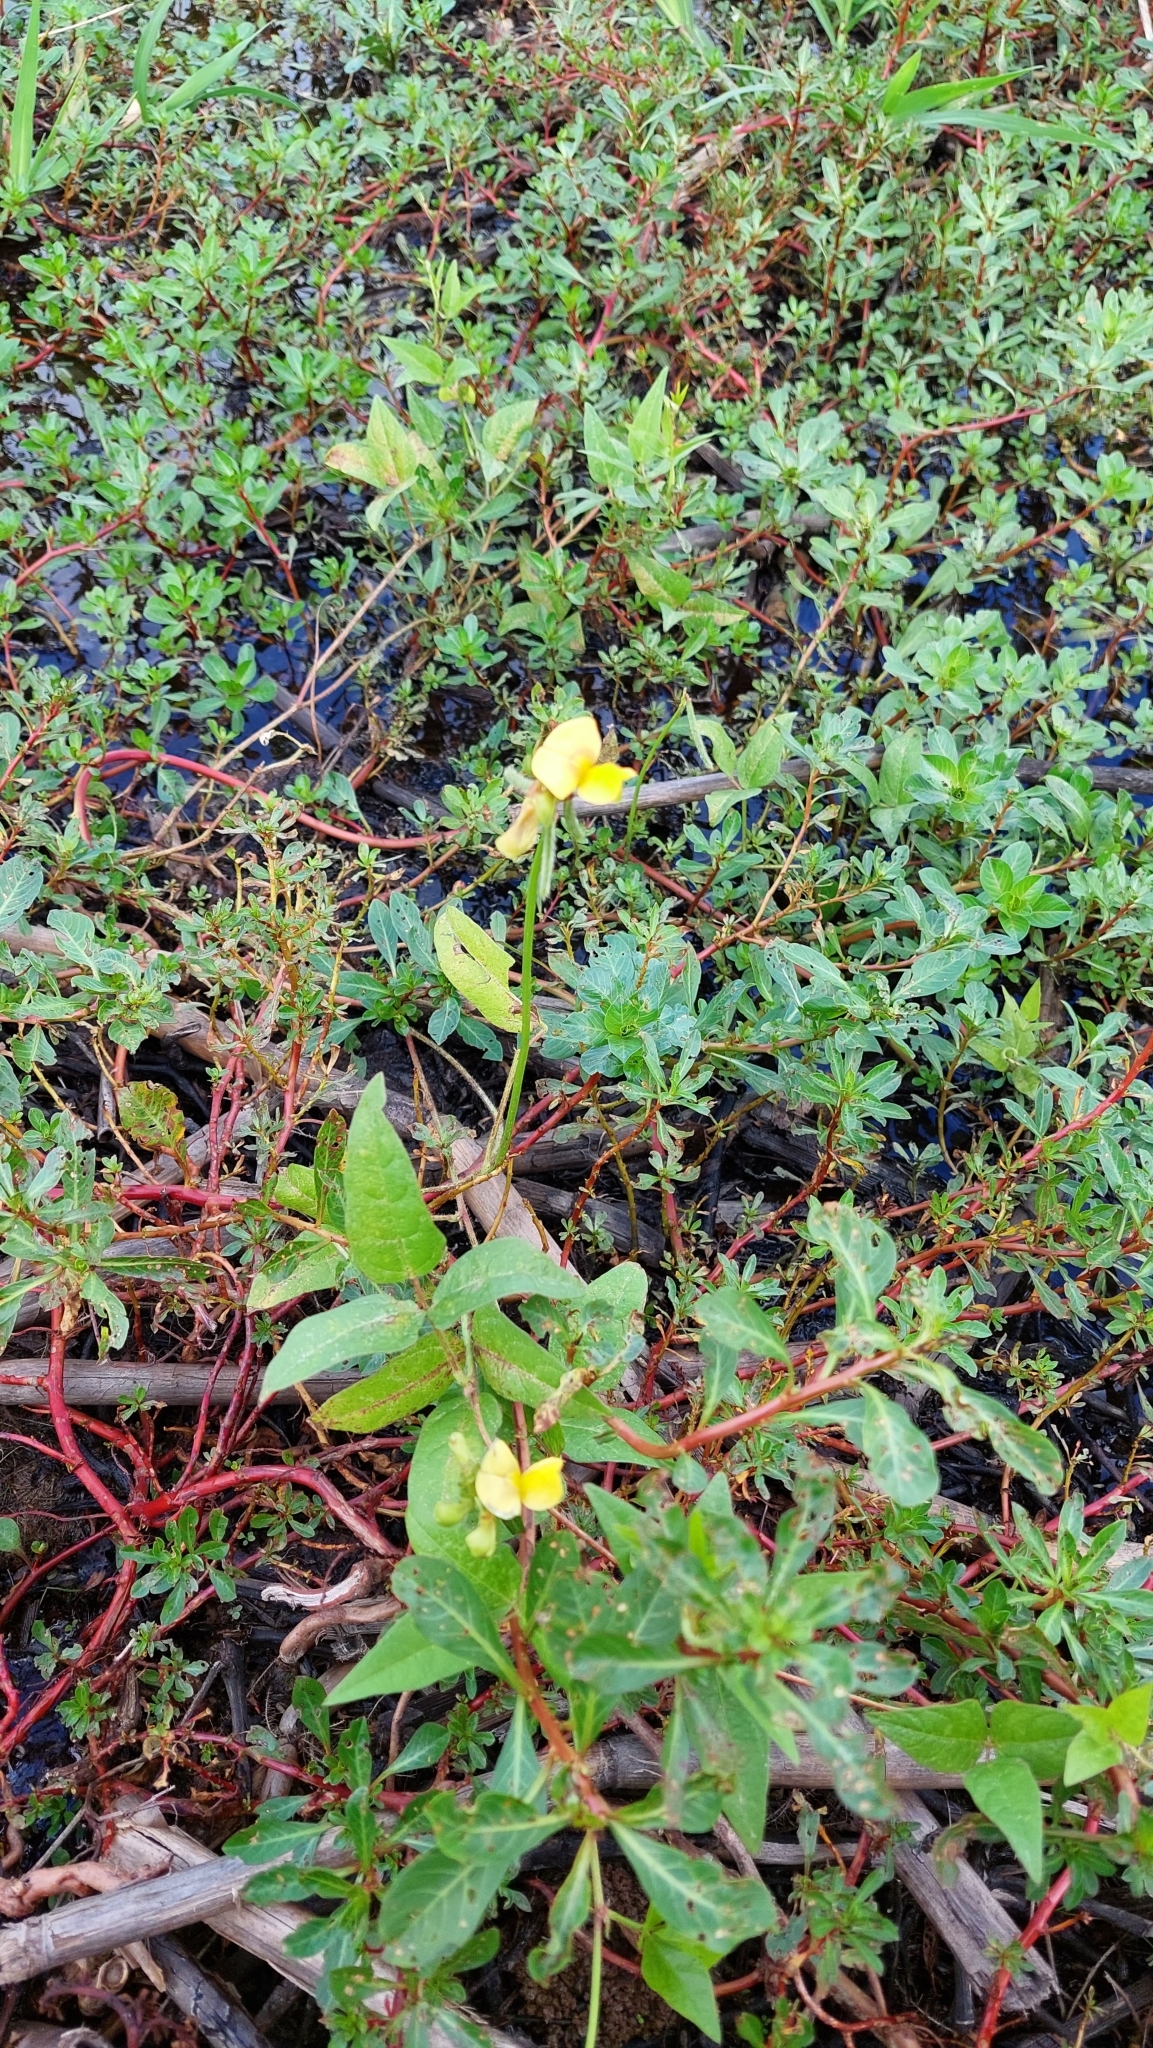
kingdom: Plantae
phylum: Tracheophyta
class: Magnoliopsida
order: Fabales
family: Fabaceae
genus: Vigna
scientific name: Vigna luteola
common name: Hairypod cowpea
